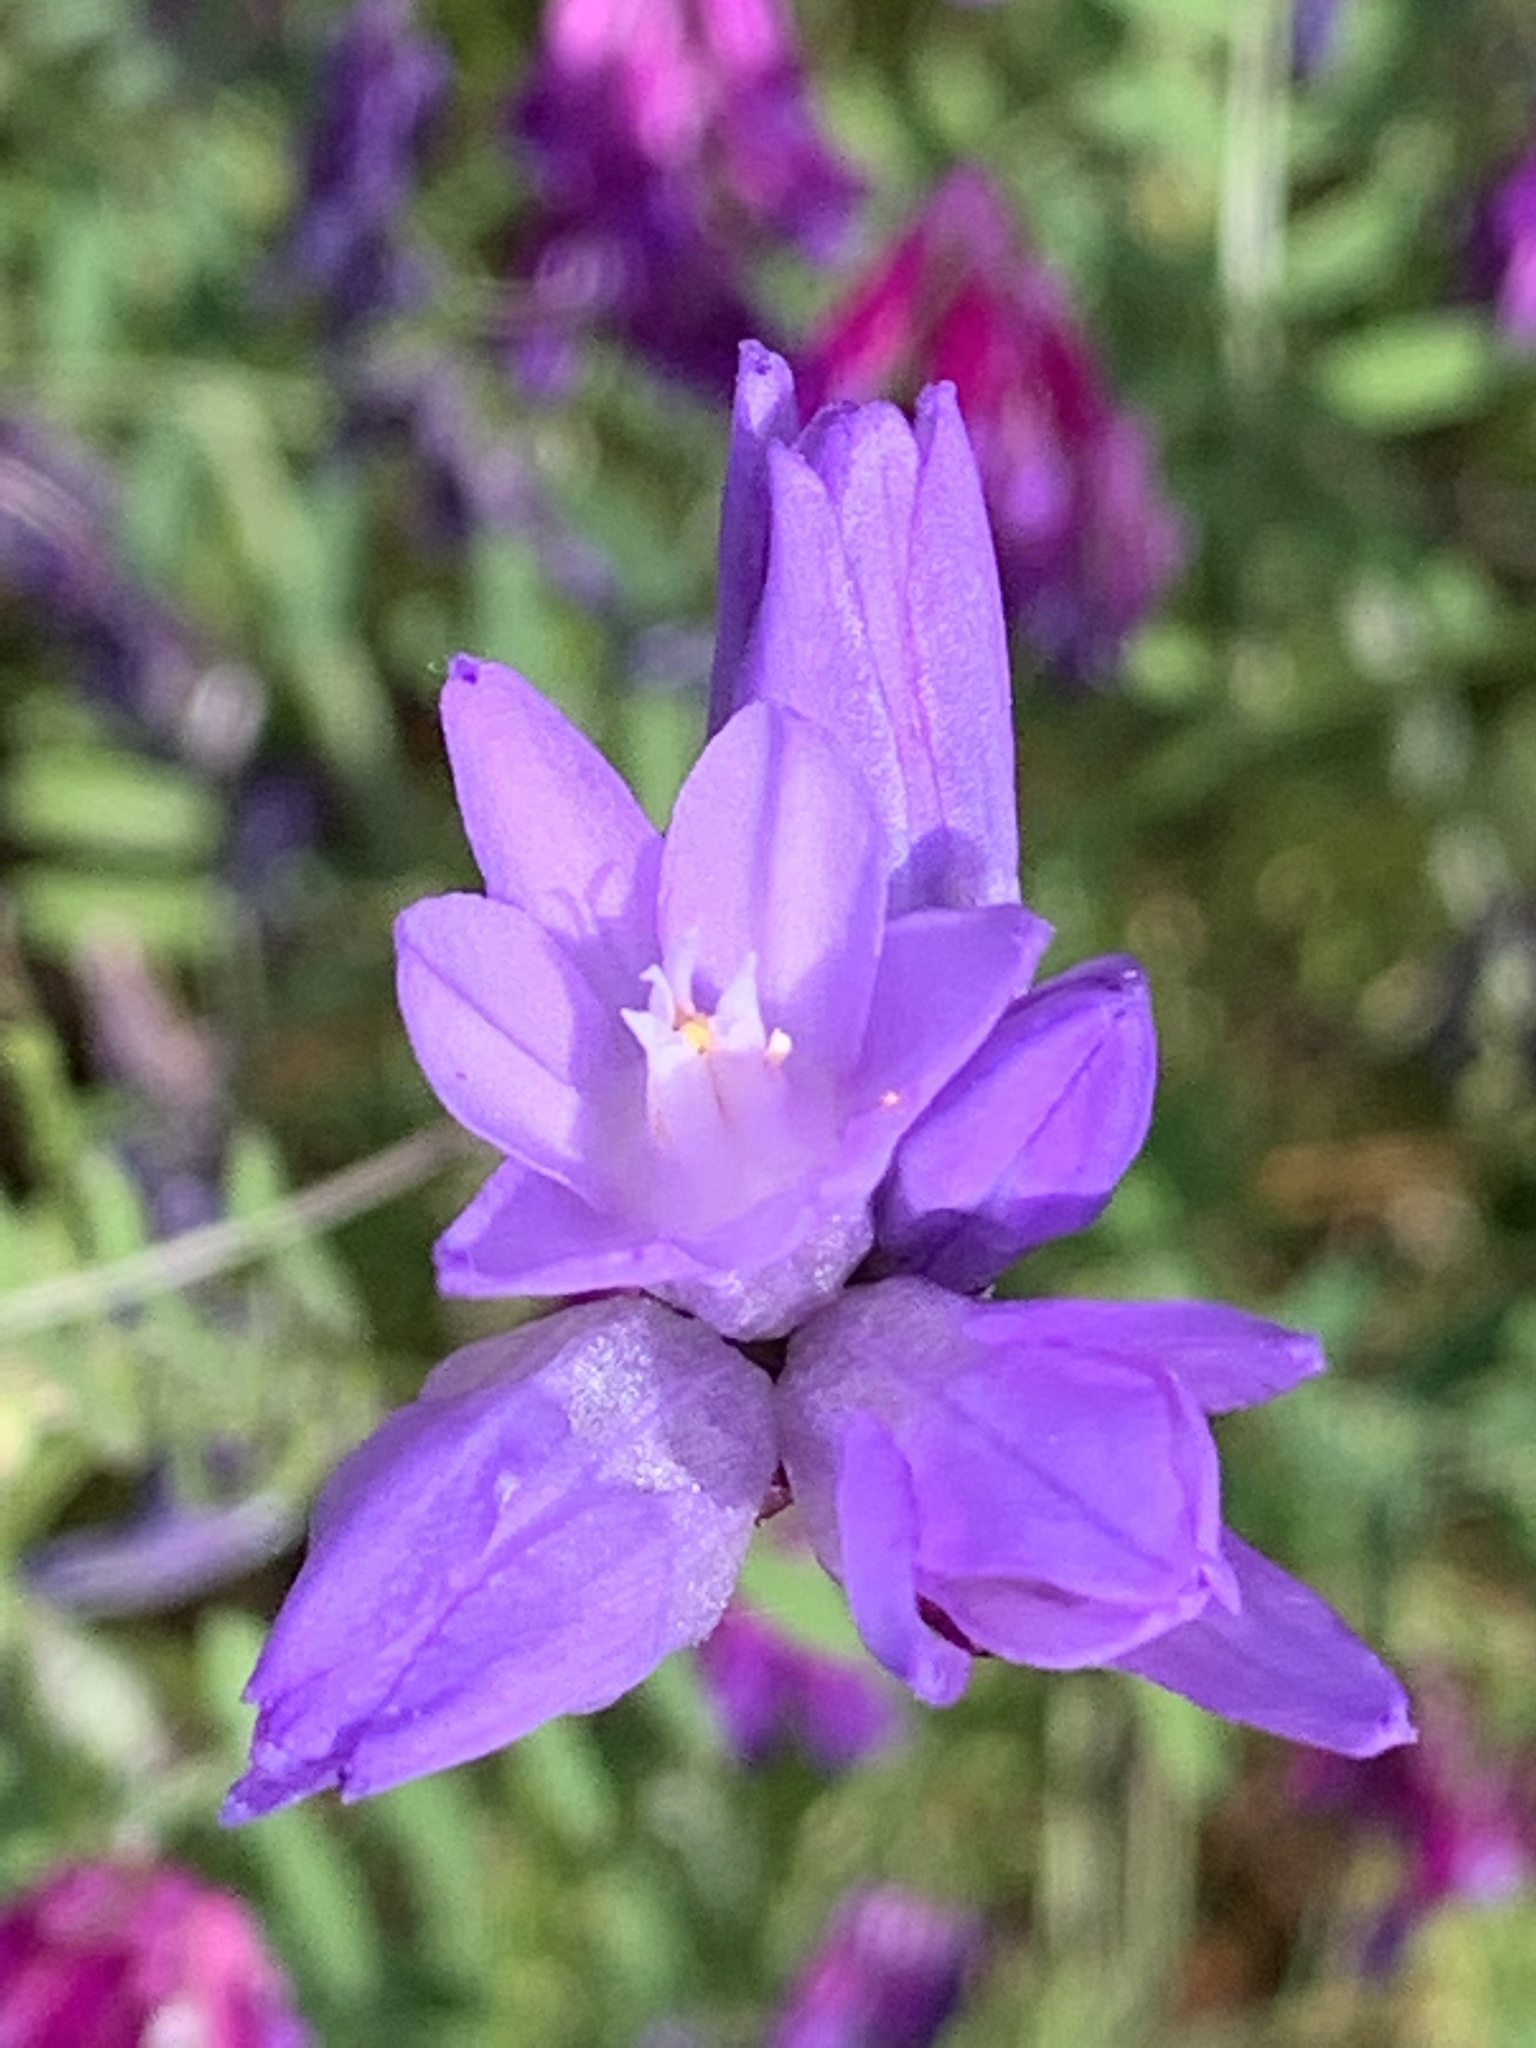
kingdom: Plantae
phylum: Tracheophyta
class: Liliopsida
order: Asparagales
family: Asparagaceae
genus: Dipterostemon
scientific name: Dipterostemon capitatus
